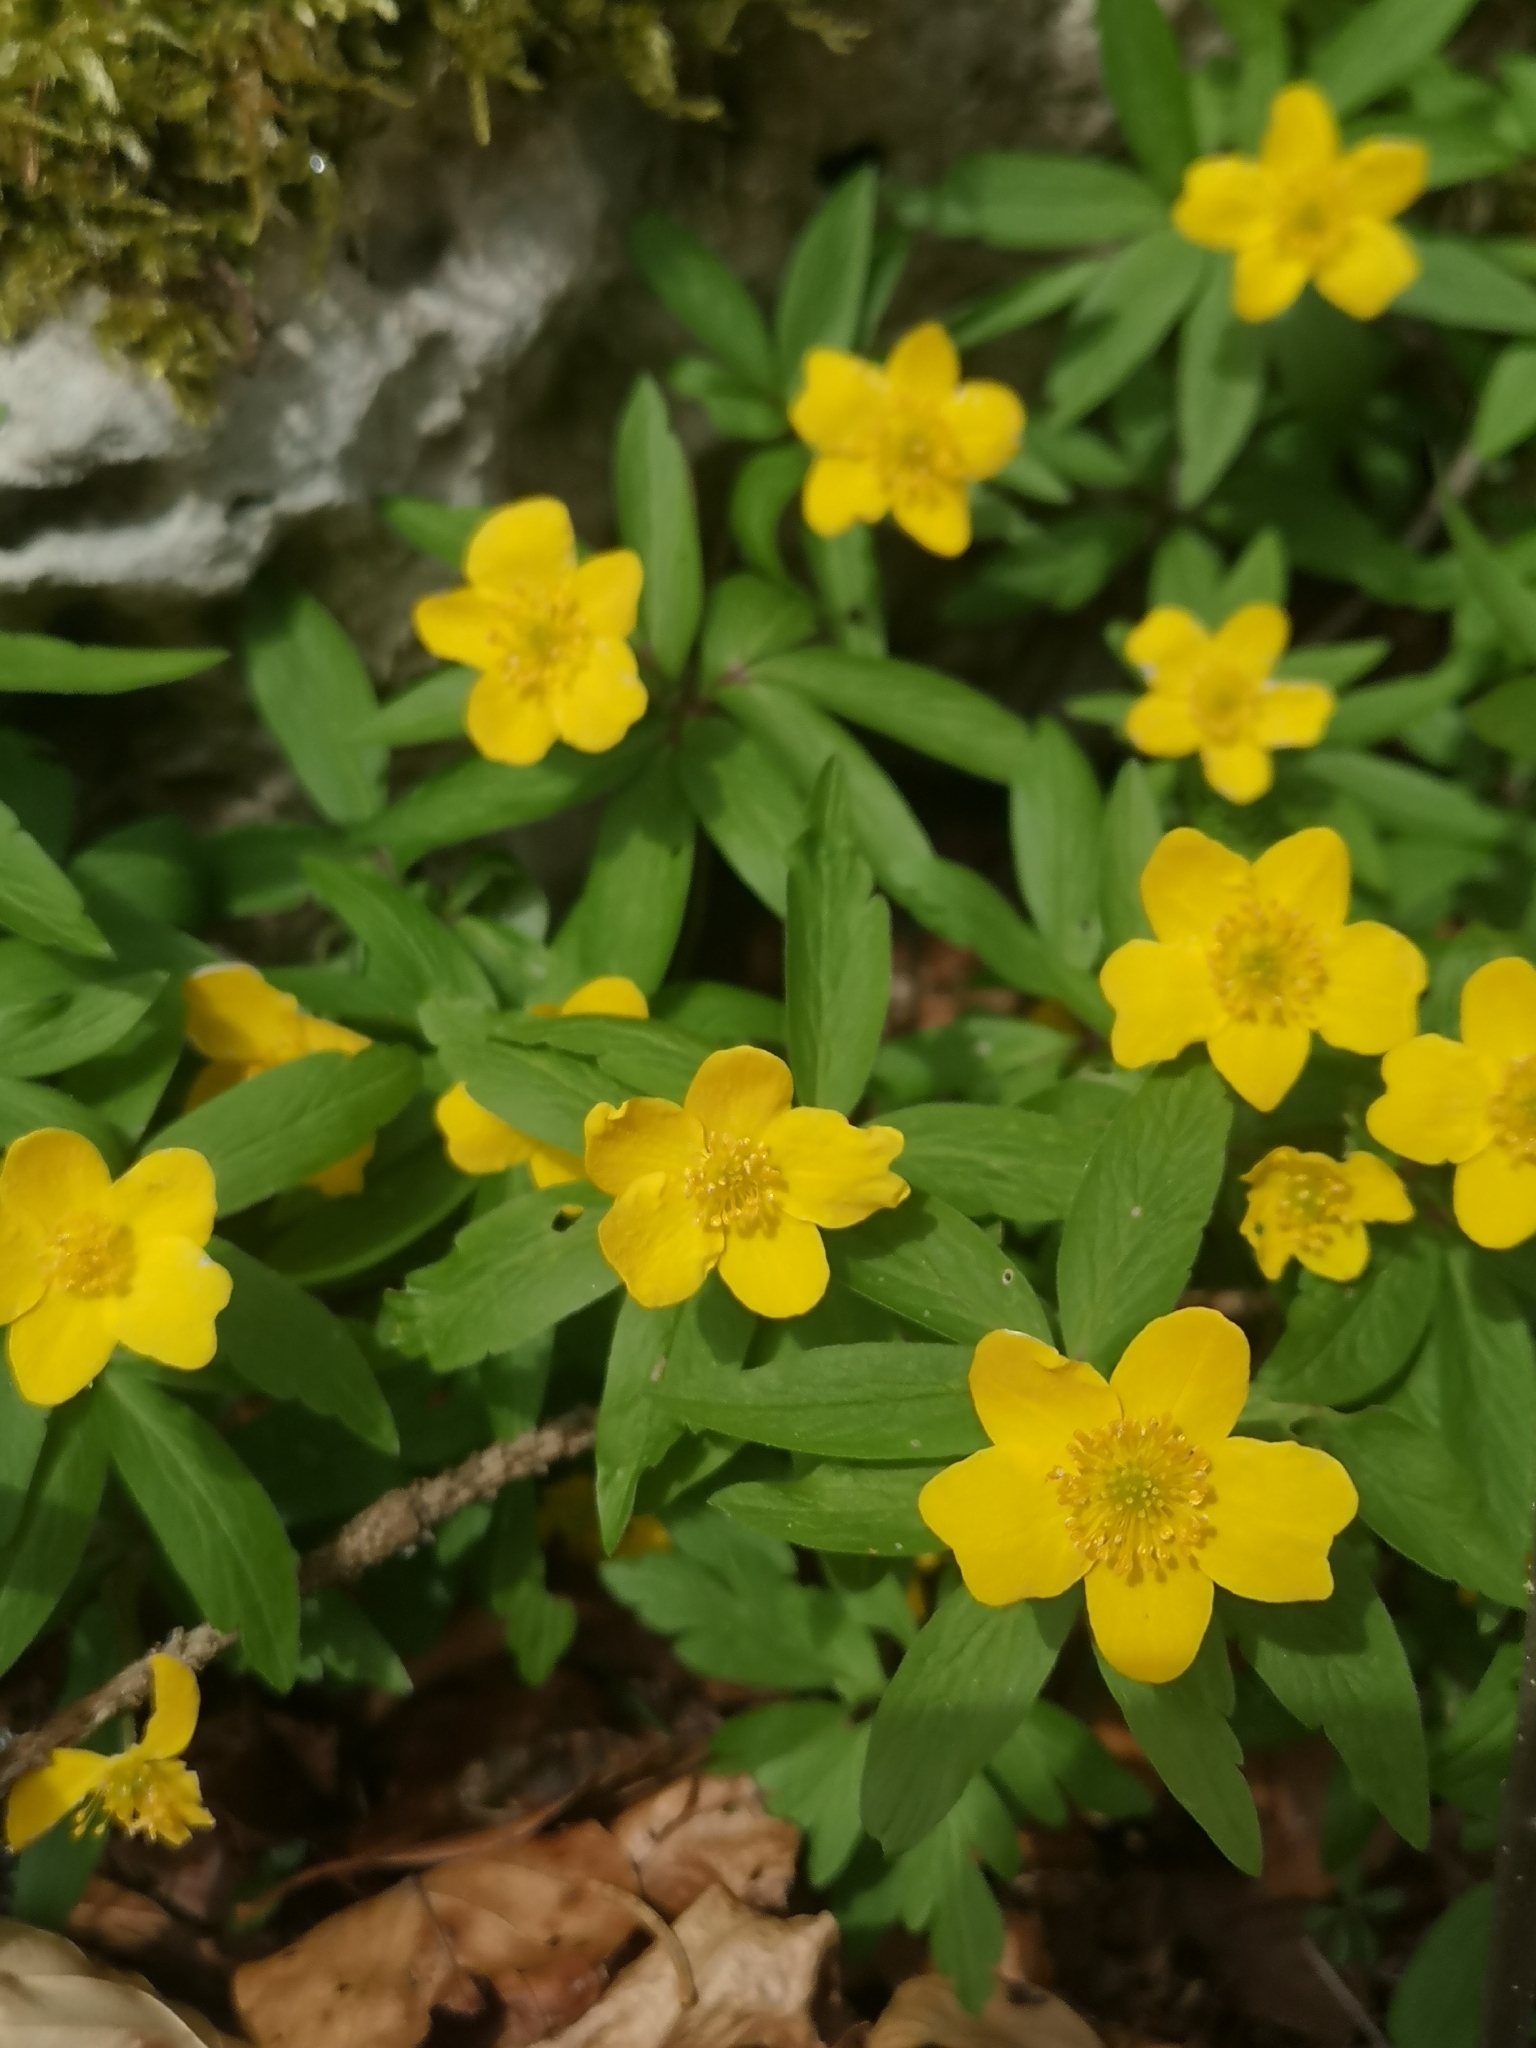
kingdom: Plantae
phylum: Tracheophyta
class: Magnoliopsida
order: Ranunculales
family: Ranunculaceae
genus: Anemone
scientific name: Anemone ranunculoides
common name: Yellow anemone
